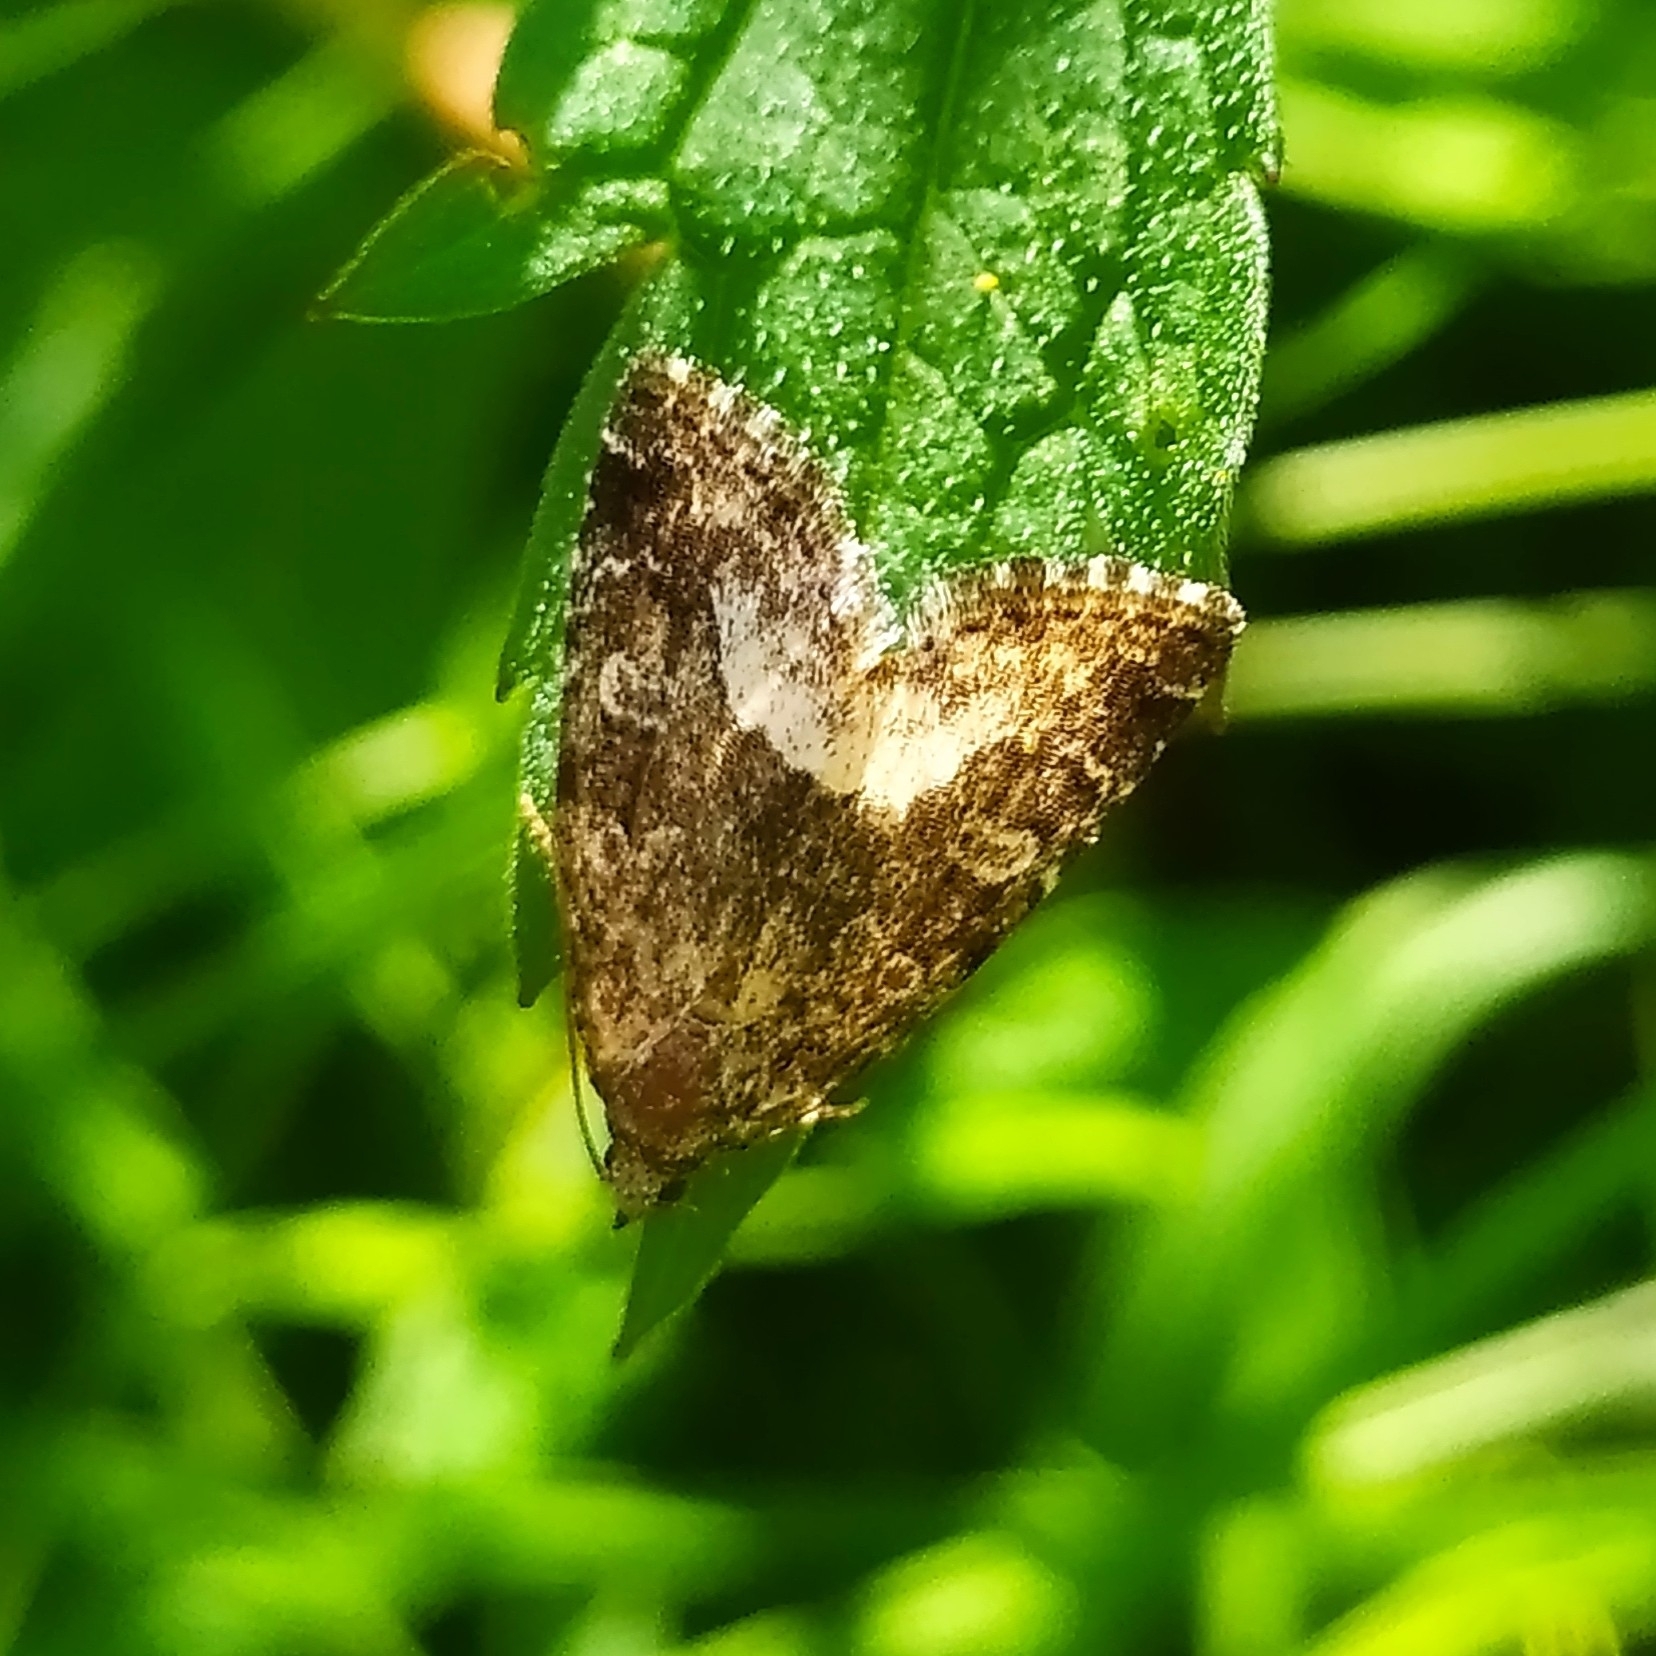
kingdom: Animalia
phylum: Arthropoda
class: Insecta
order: Lepidoptera
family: Noctuidae
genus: Deltote
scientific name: Deltote pygarga
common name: Marbled white spot
